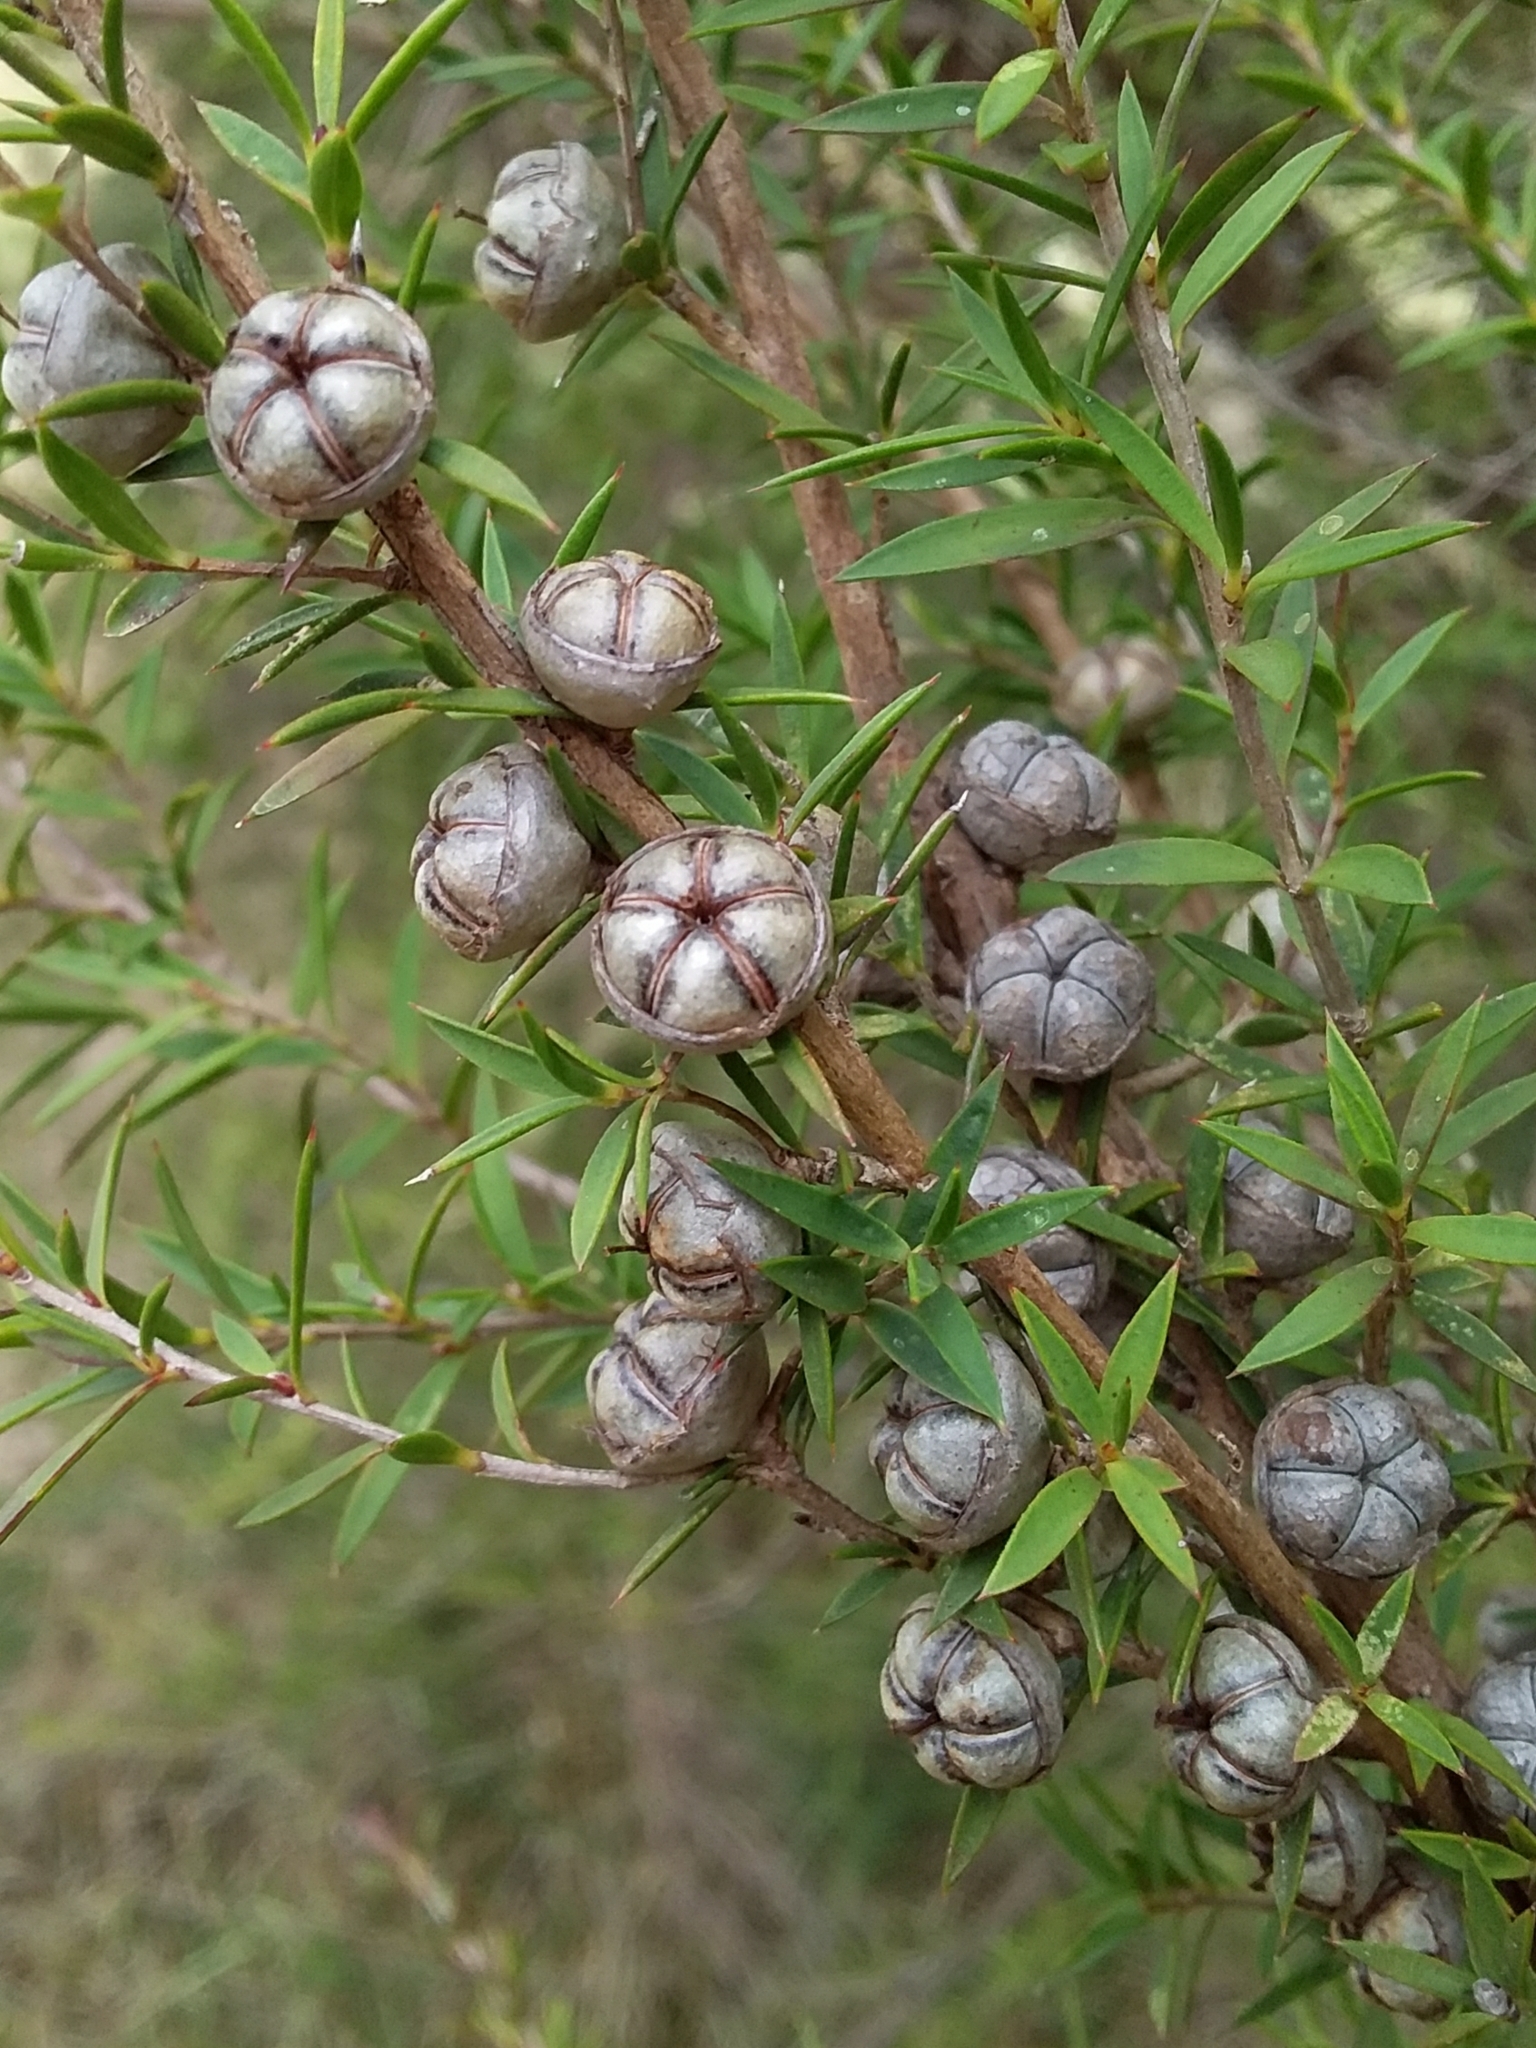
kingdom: Plantae
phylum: Tracheophyta
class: Magnoliopsida
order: Myrtales
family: Myrtaceae
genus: Leptospermum
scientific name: Leptospermum continentale
